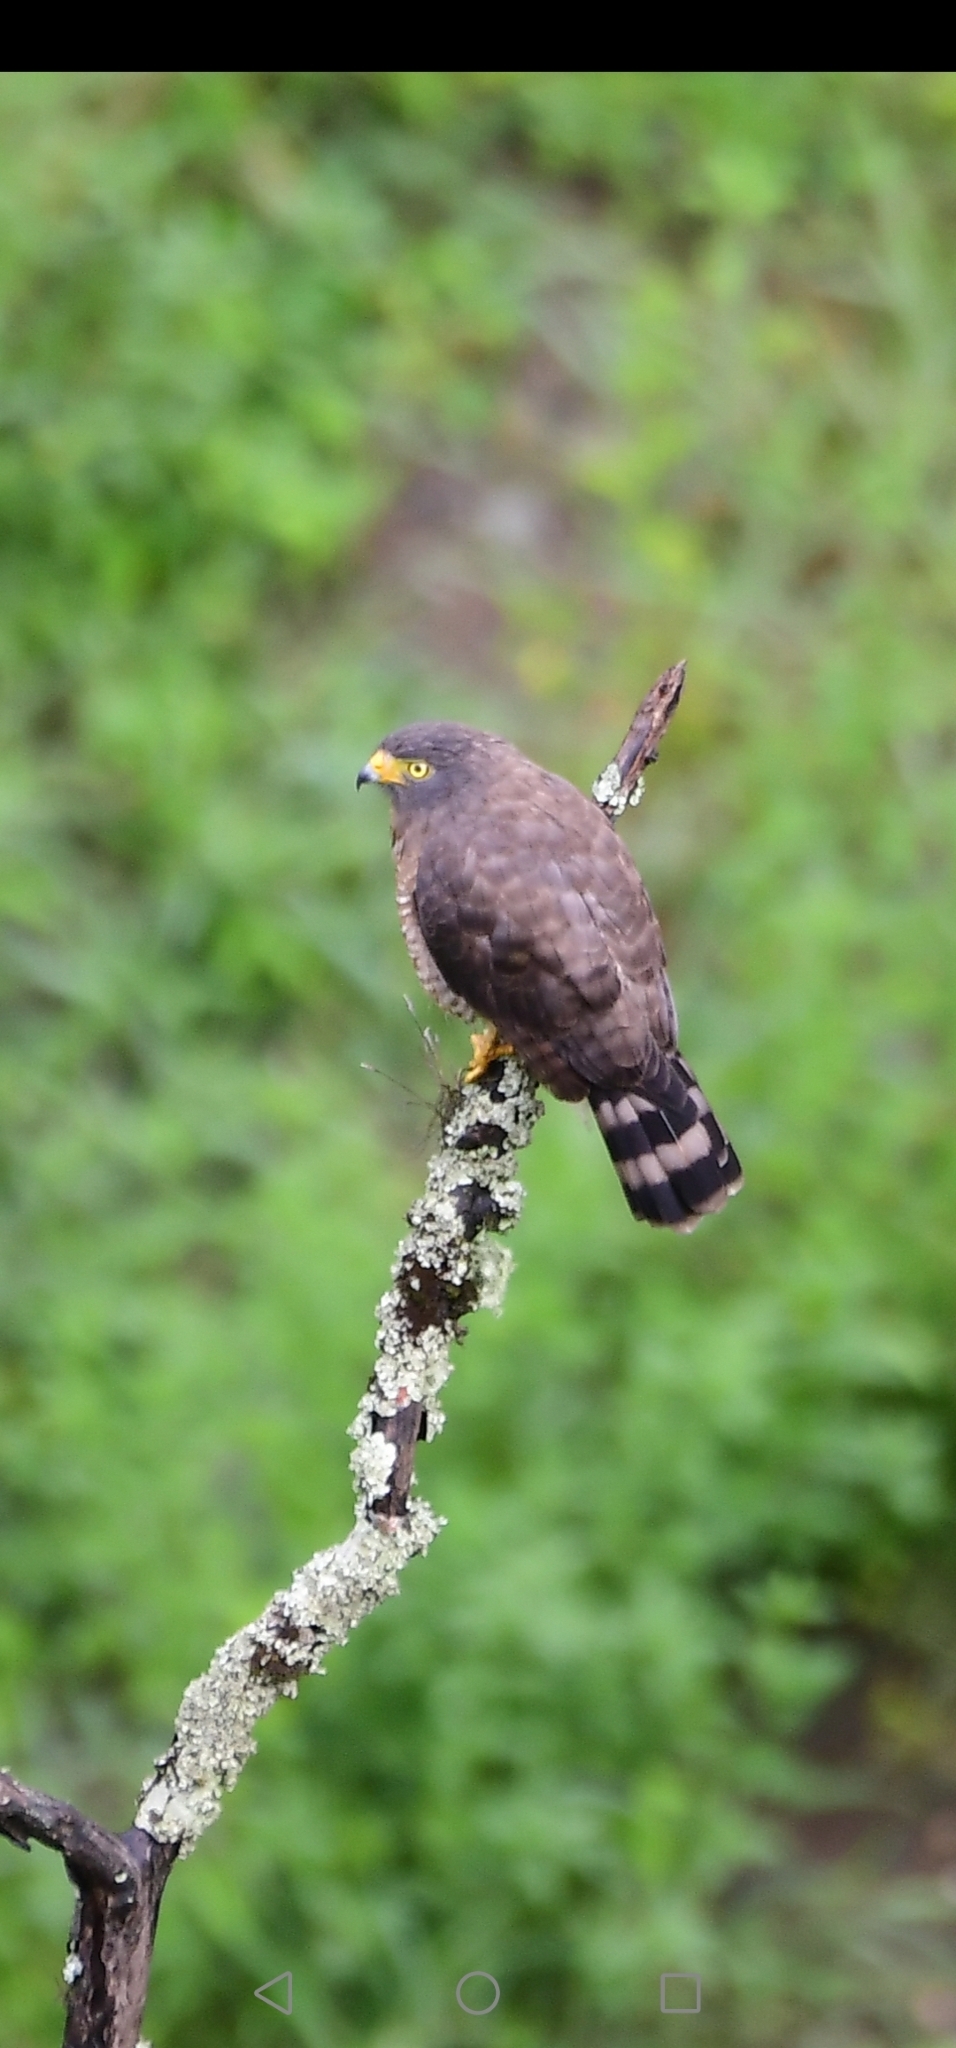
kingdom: Animalia
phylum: Chordata
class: Aves
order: Accipitriformes
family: Accipitridae
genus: Rupornis
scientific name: Rupornis magnirostris
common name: Roadside hawk
